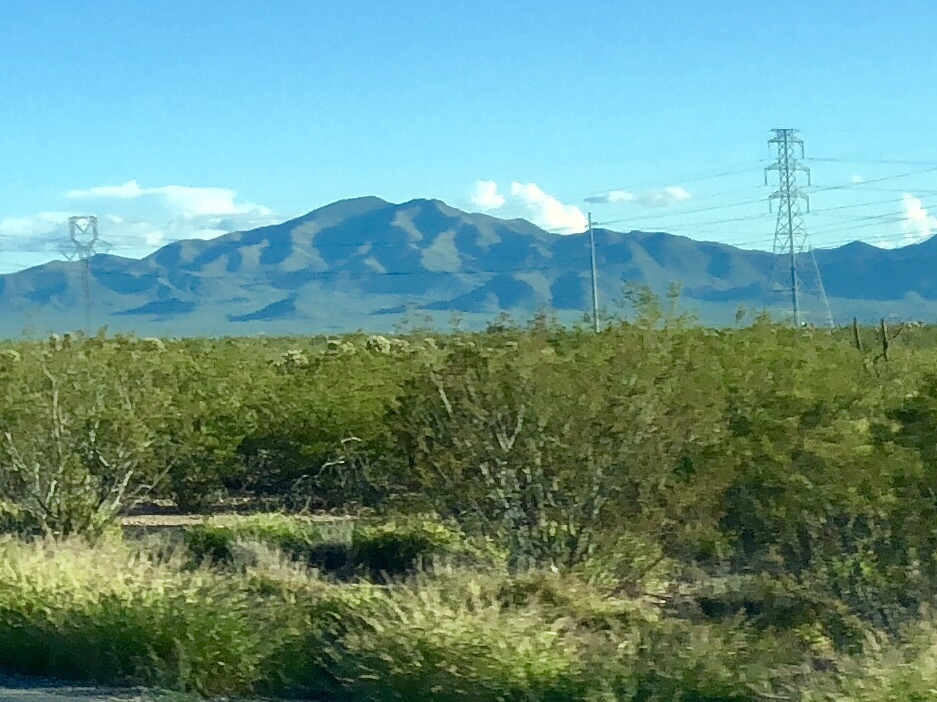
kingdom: Plantae
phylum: Tracheophyta
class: Magnoliopsida
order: Zygophyllales
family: Zygophyllaceae
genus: Larrea
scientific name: Larrea tridentata
